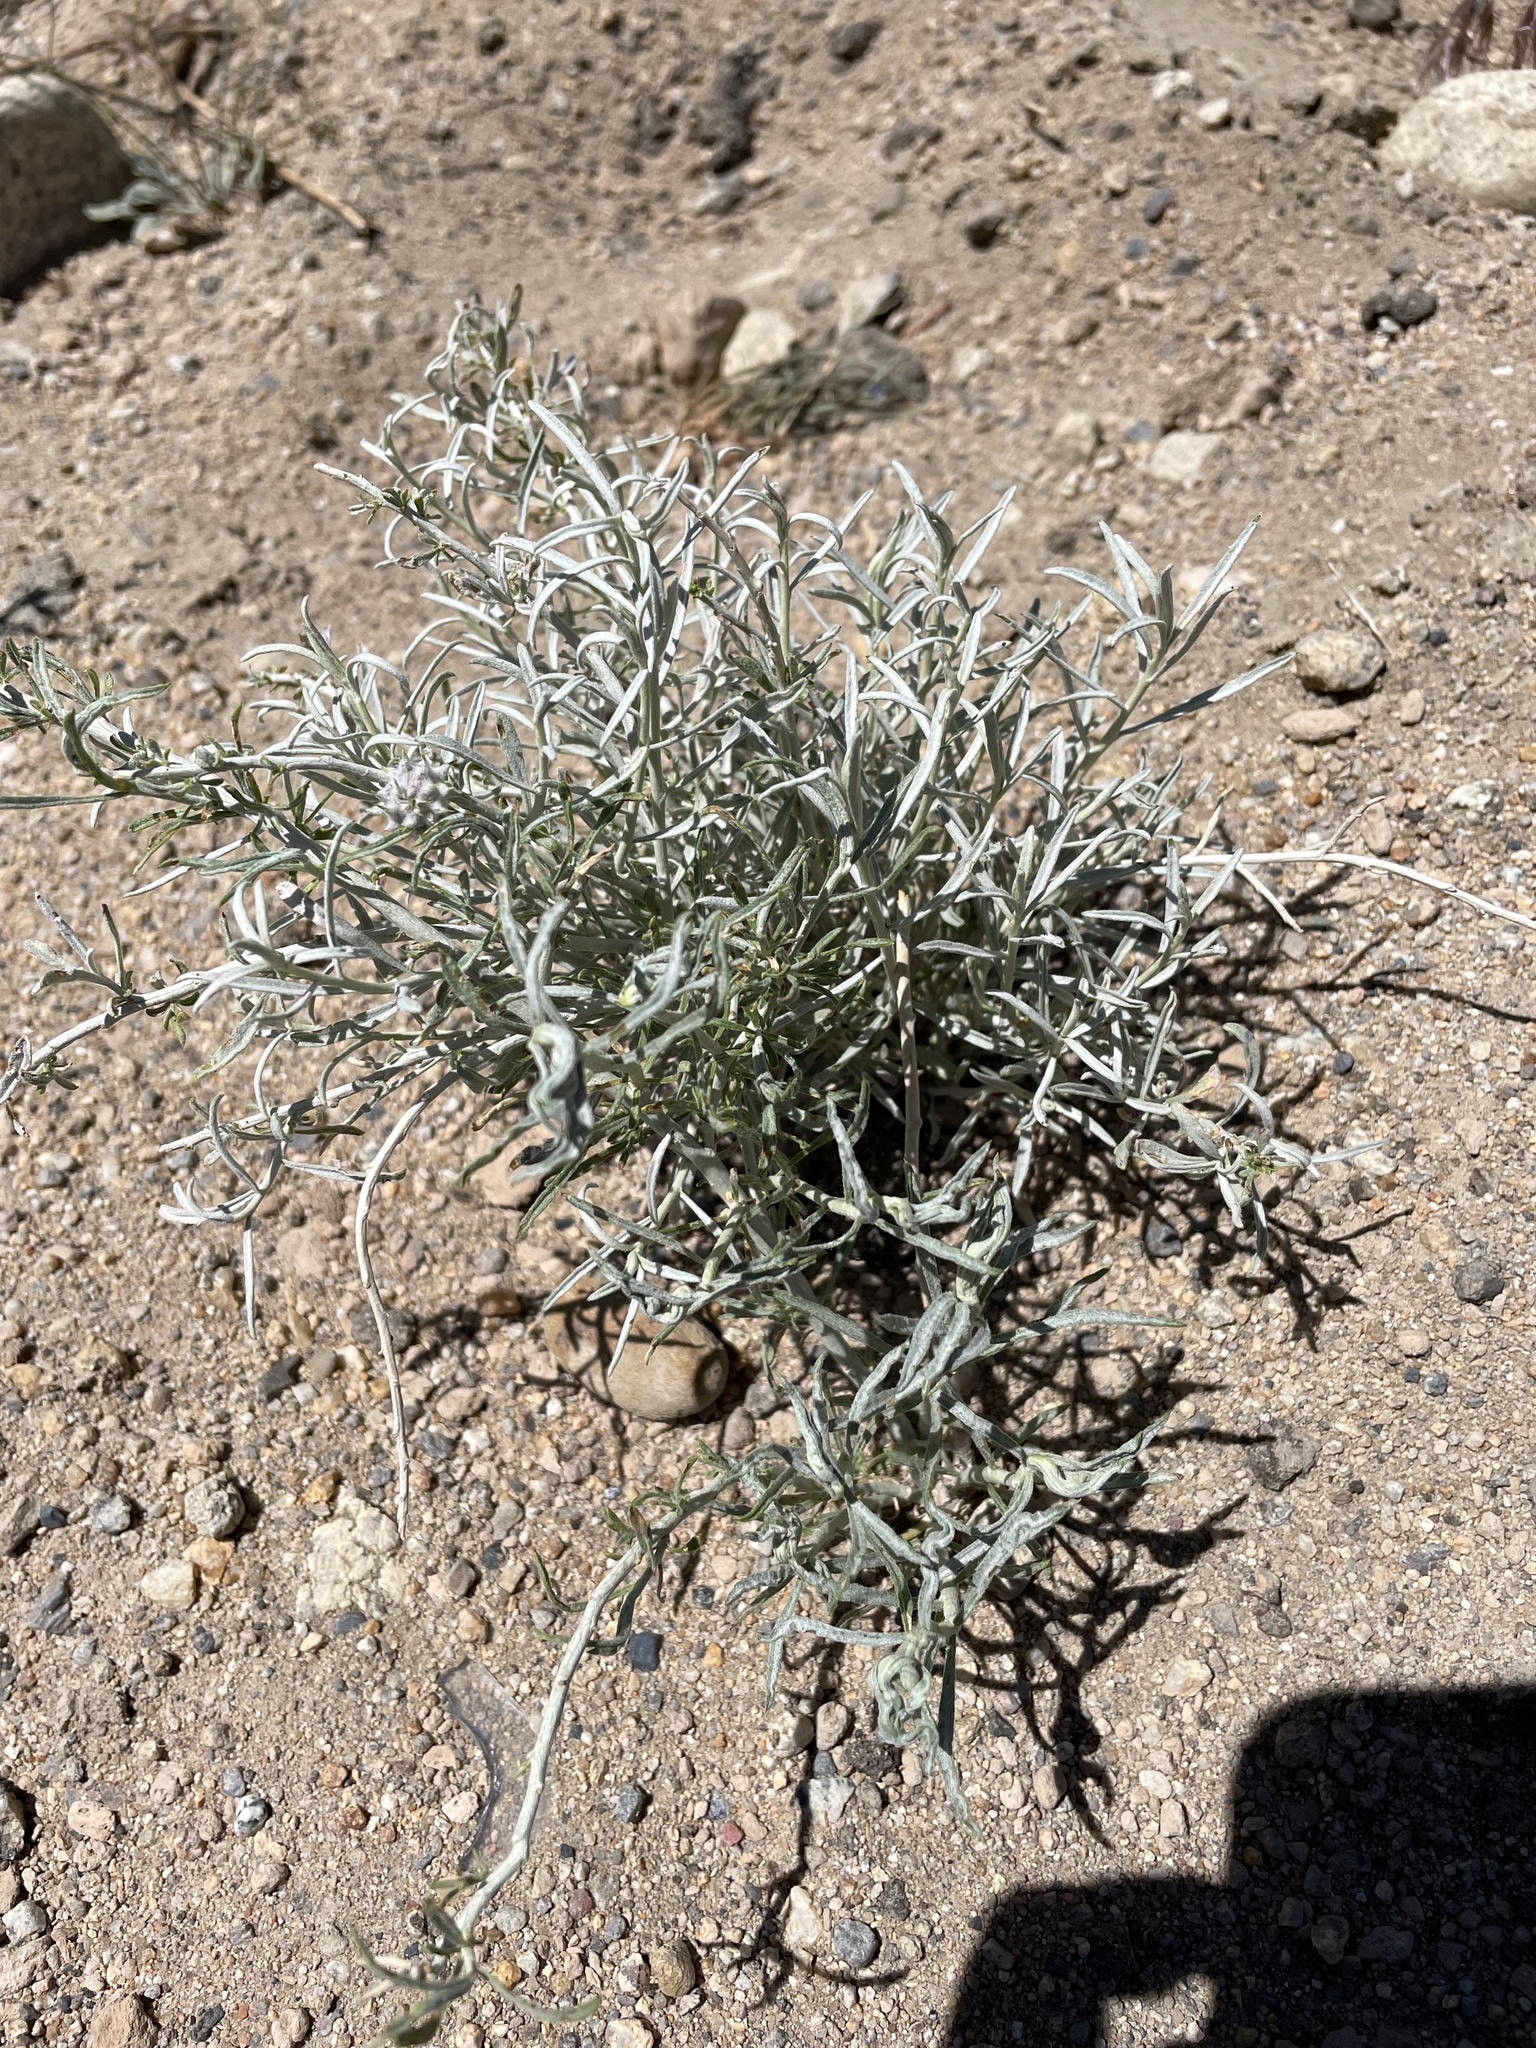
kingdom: Plantae
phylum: Tracheophyta
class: Magnoliopsida
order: Asterales
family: Asteraceae
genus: Ericameria
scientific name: Ericameria nauseosa
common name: Rubber rabbitbrush
